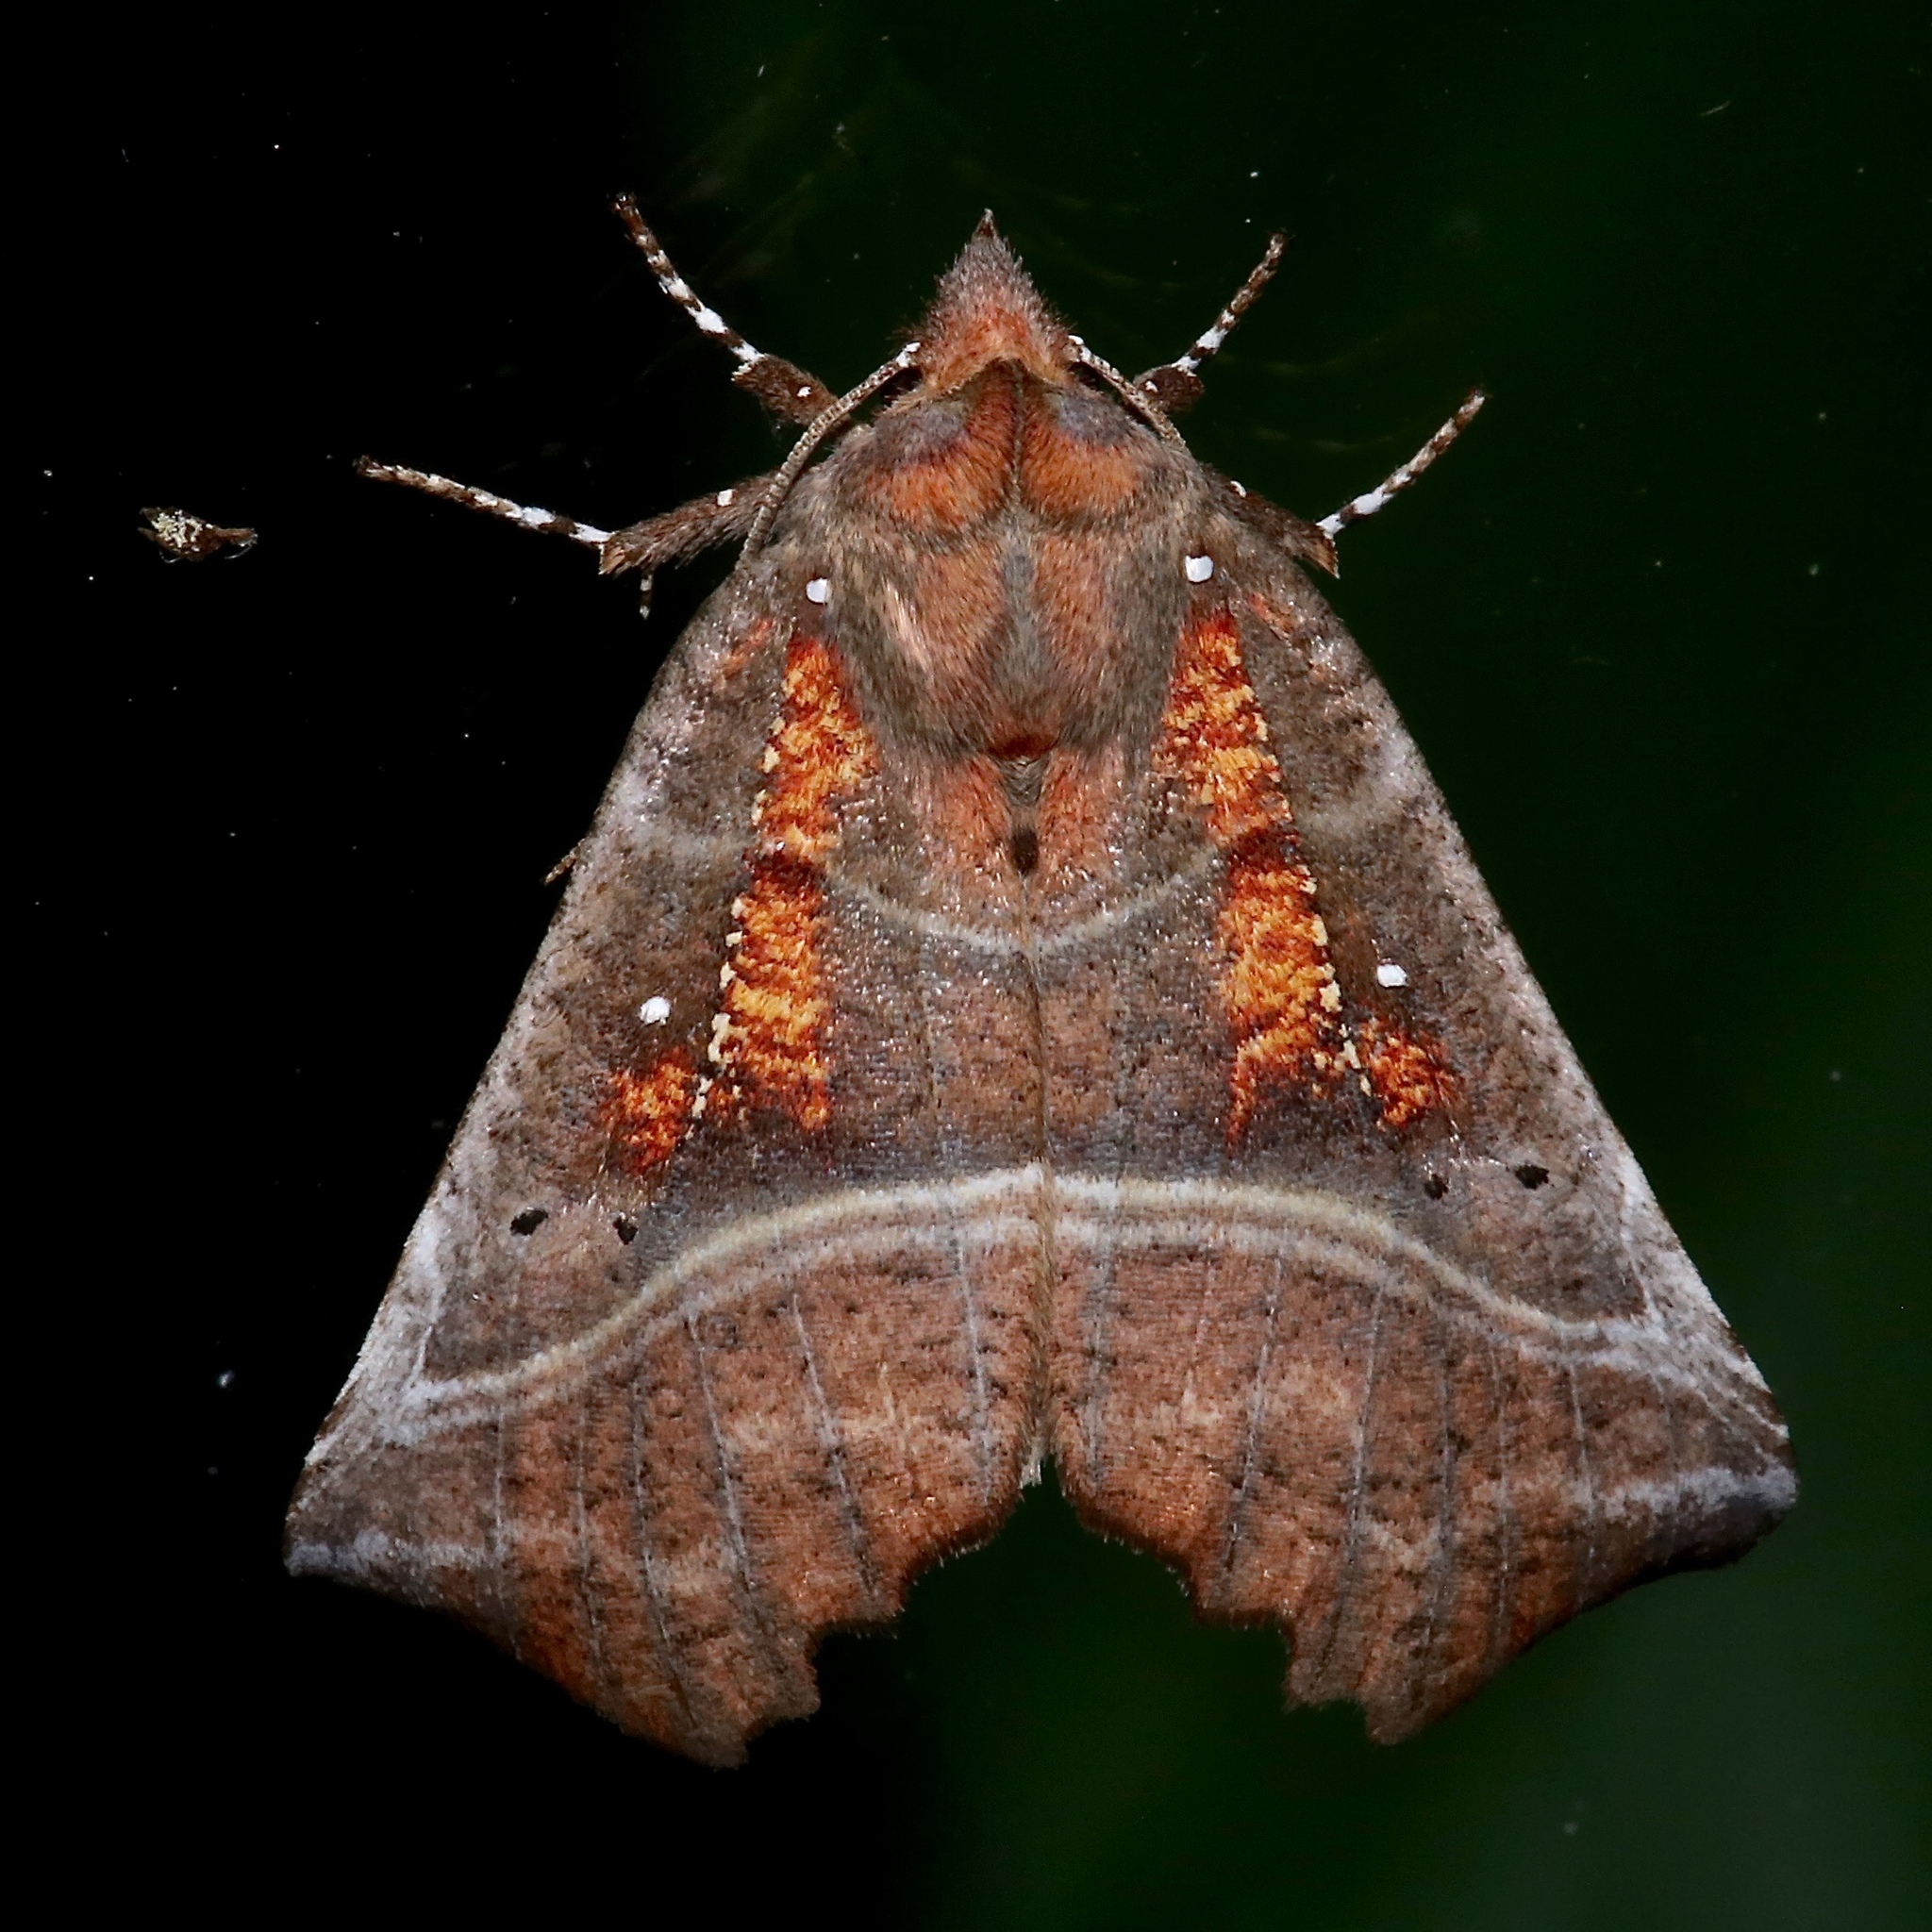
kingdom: Animalia
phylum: Arthropoda
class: Insecta
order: Lepidoptera
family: Erebidae
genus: Scoliopteryx
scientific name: Scoliopteryx libatrix
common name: Herald
